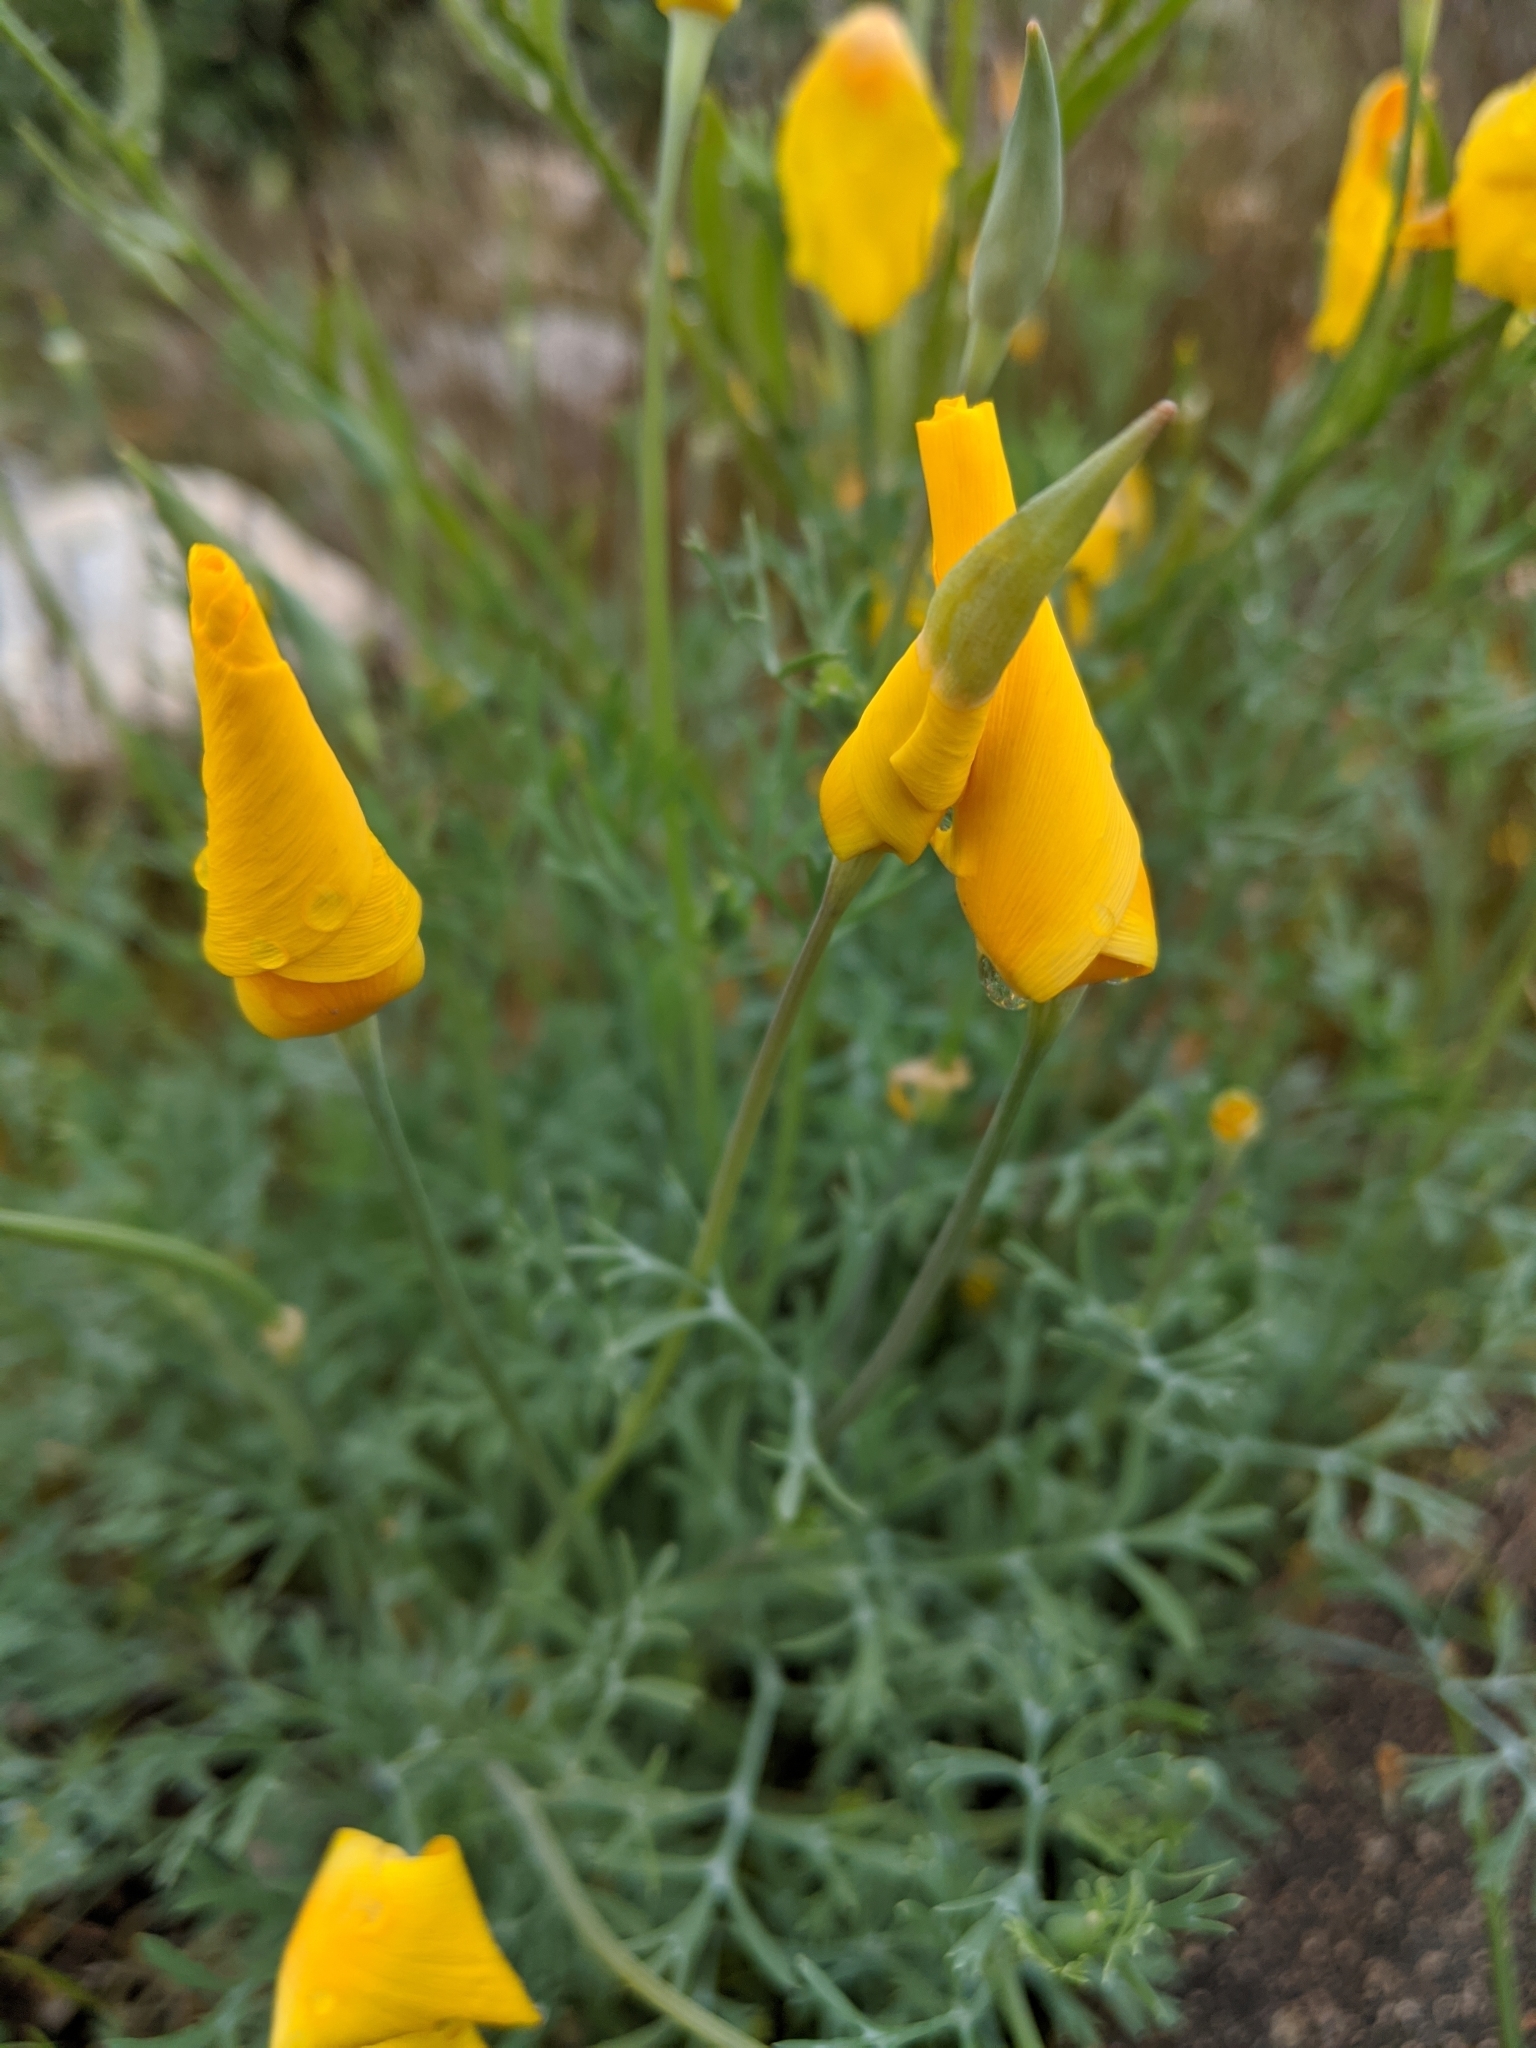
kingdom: Plantae
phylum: Tracheophyta
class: Magnoliopsida
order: Ranunculales
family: Papaveraceae
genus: Eschscholzia
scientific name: Eschscholzia californica
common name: California poppy
